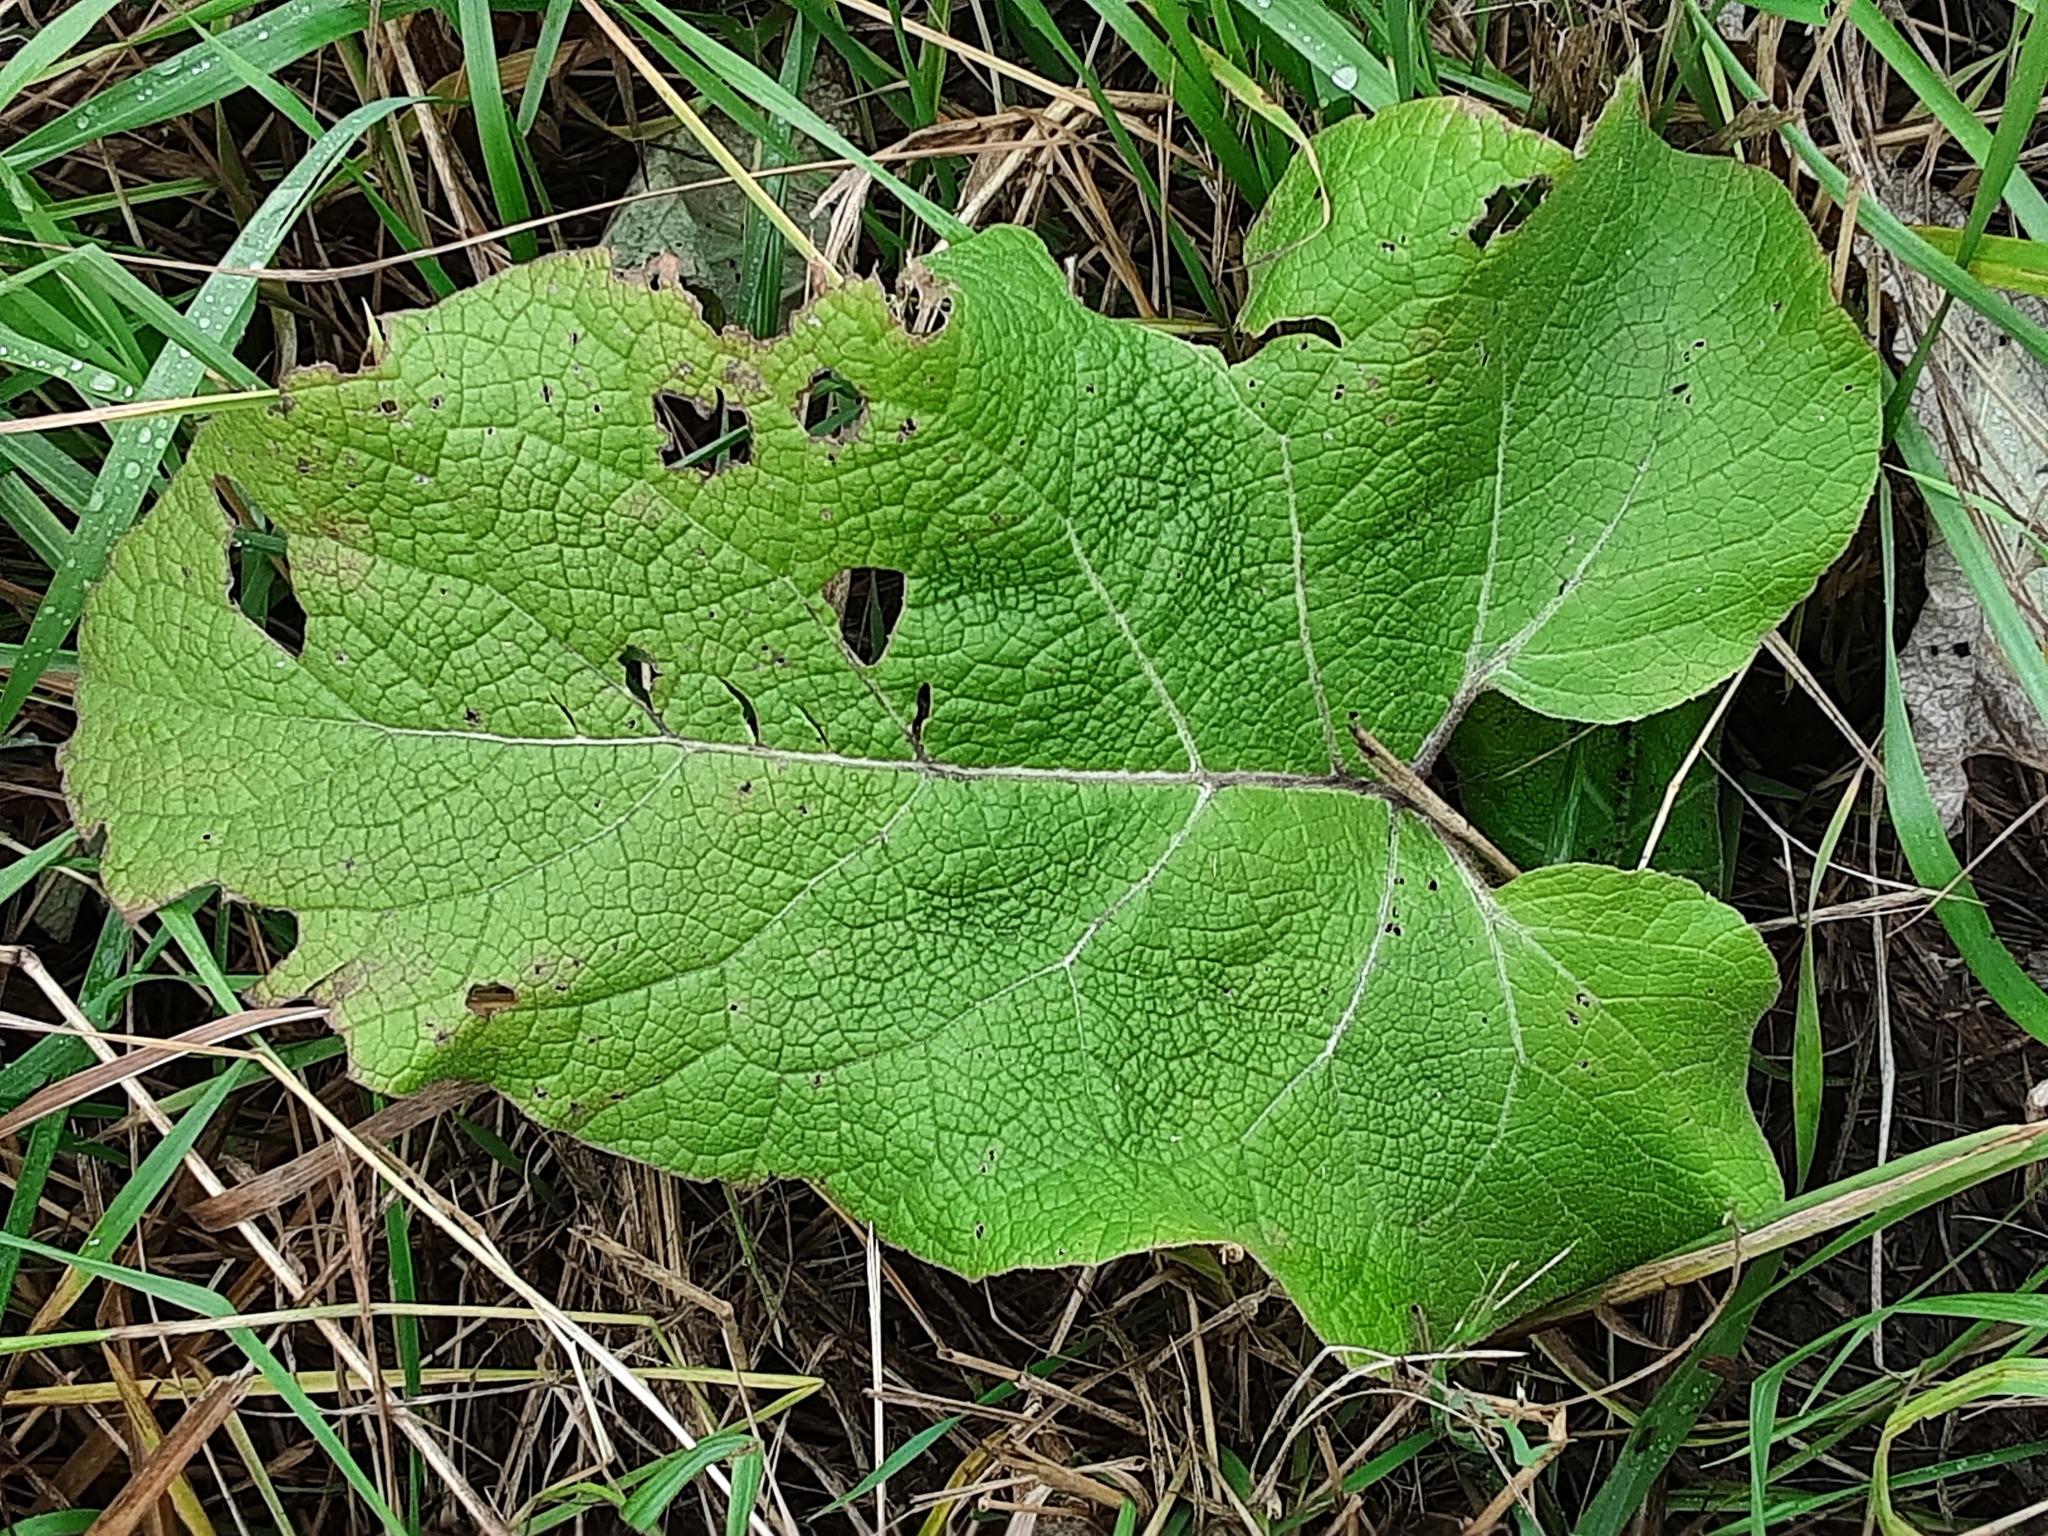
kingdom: Plantae
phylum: Tracheophyta
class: Magnoliopsida
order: Asterales
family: Asteraceae
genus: Arctium
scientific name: Arctium
